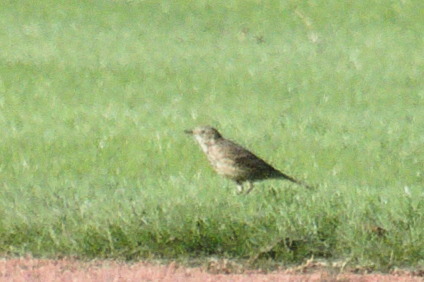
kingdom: Animalia
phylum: Chordata
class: Aves
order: Passeriformes
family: Motacillidae
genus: Anthus
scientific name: Anthus rubescens
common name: Buff-bellied pipit
